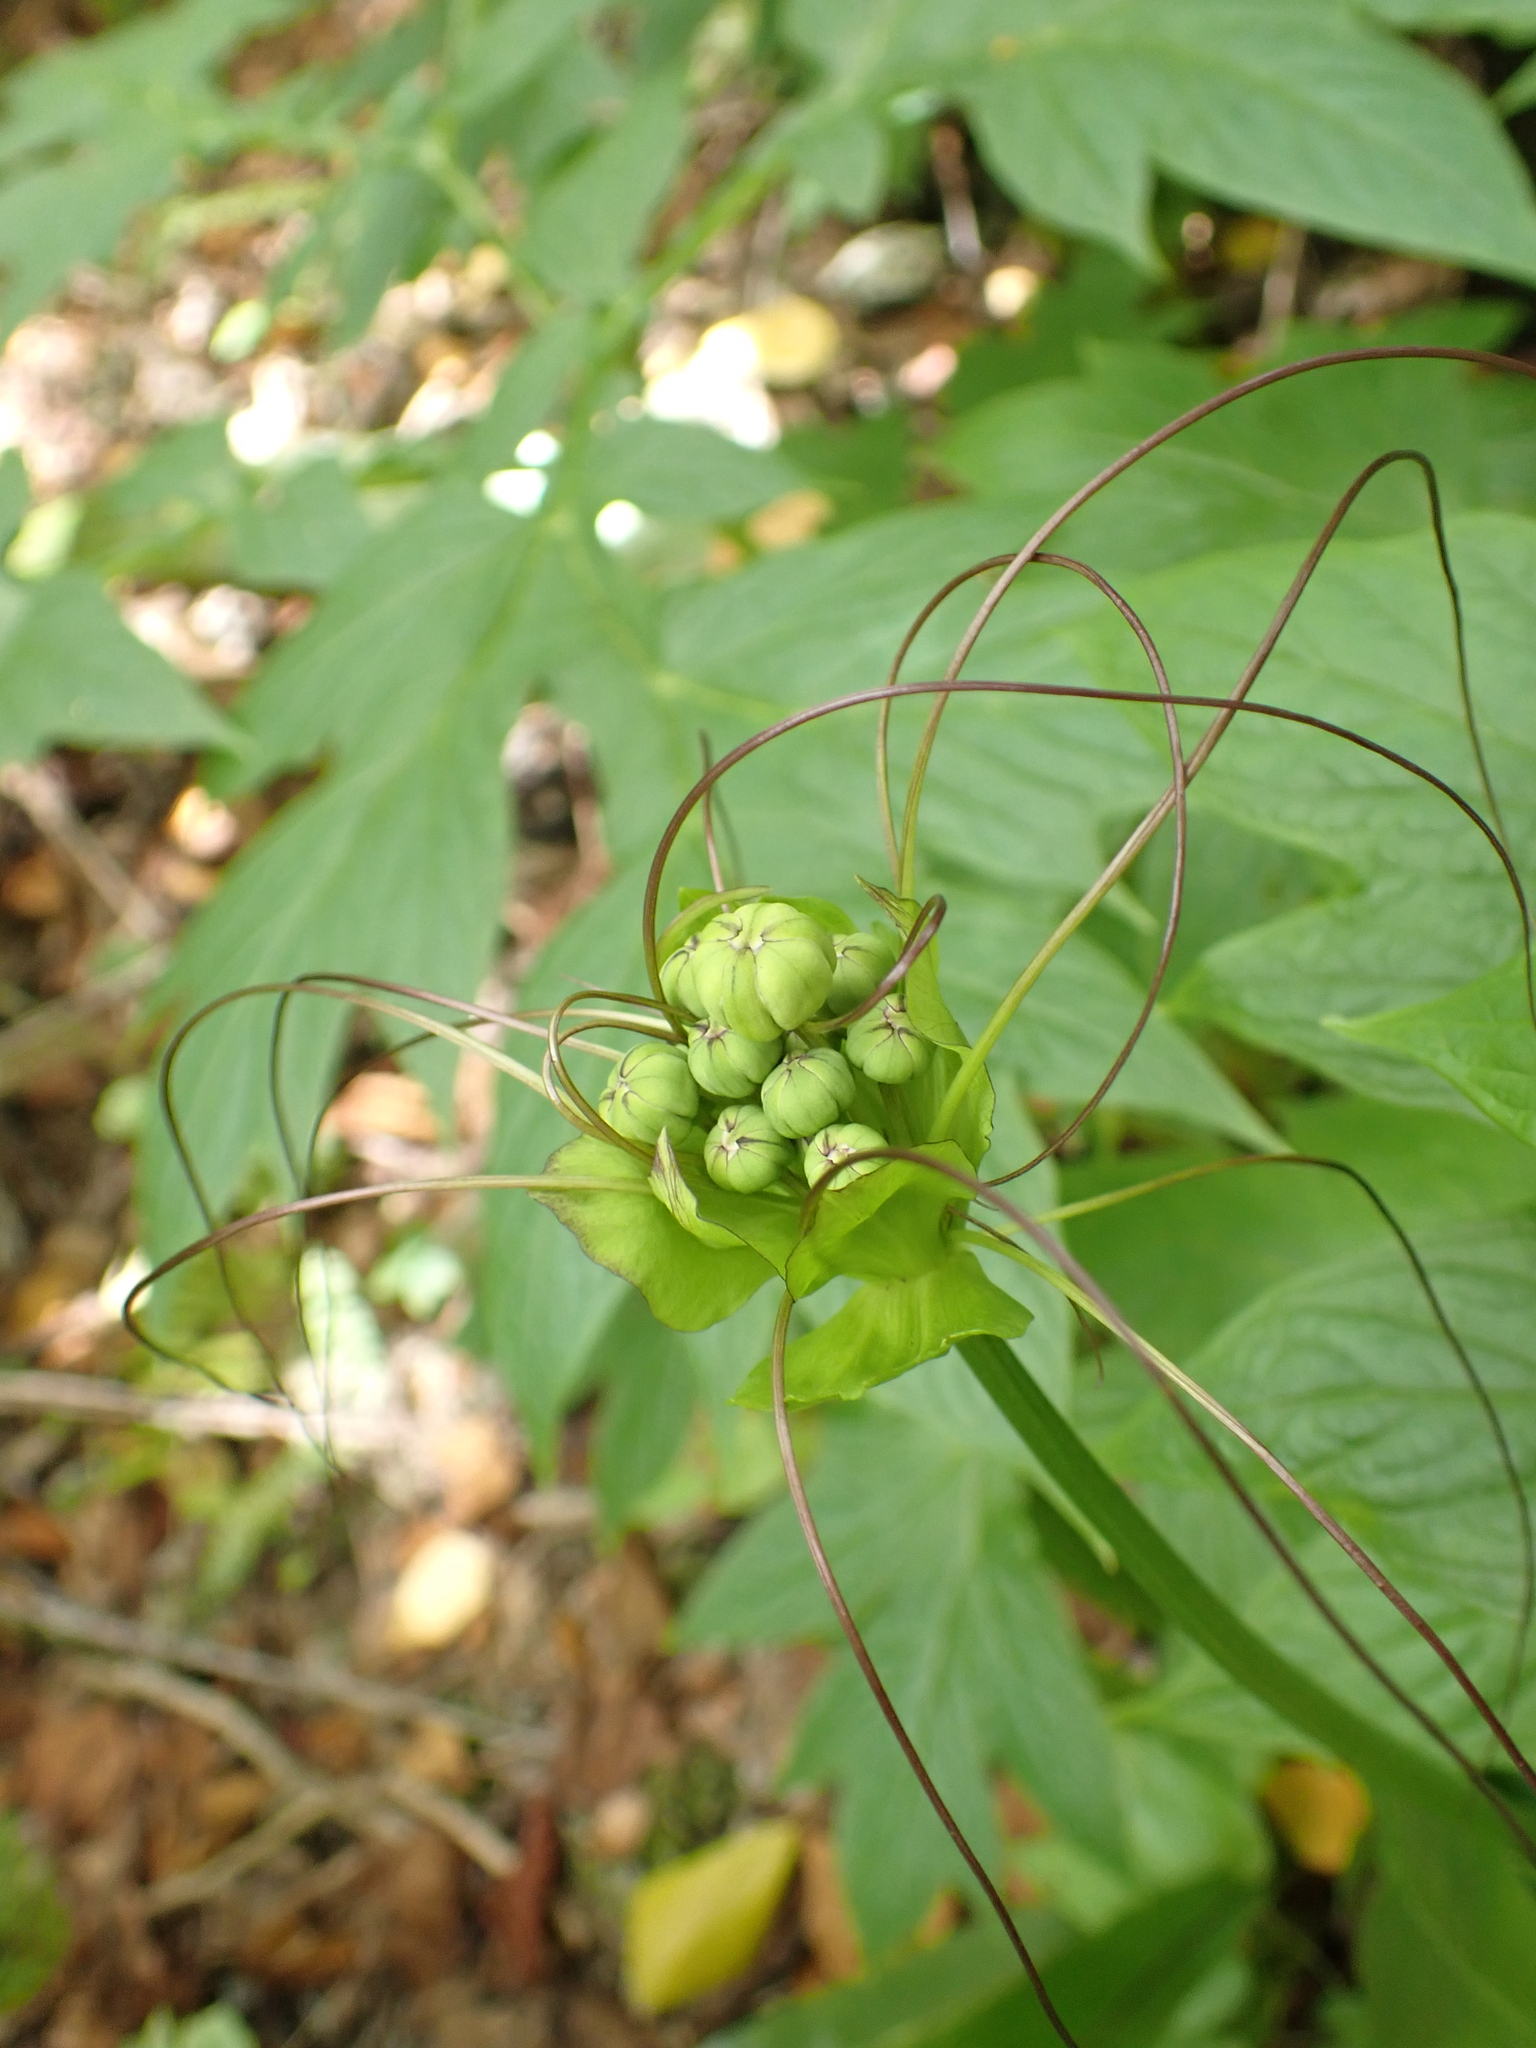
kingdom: Plantae
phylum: Tracheophyta
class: Liliopsida
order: Dioscoreales
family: Dioscoreaceae
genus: Tacca
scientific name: Tacca leontopetaloides
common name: Arrowroot
